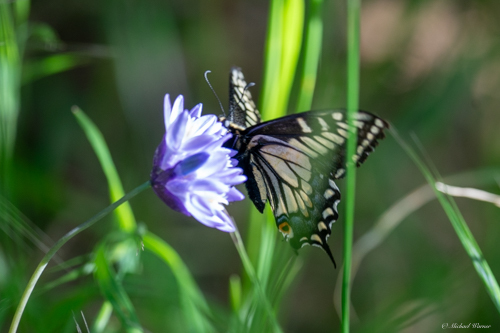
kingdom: Animalia
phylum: Arthropoda
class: Insecta
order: Lepidoptera
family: Papilionidae
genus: Papilio
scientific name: Papilio zelicaon
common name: Anise swallowtail
